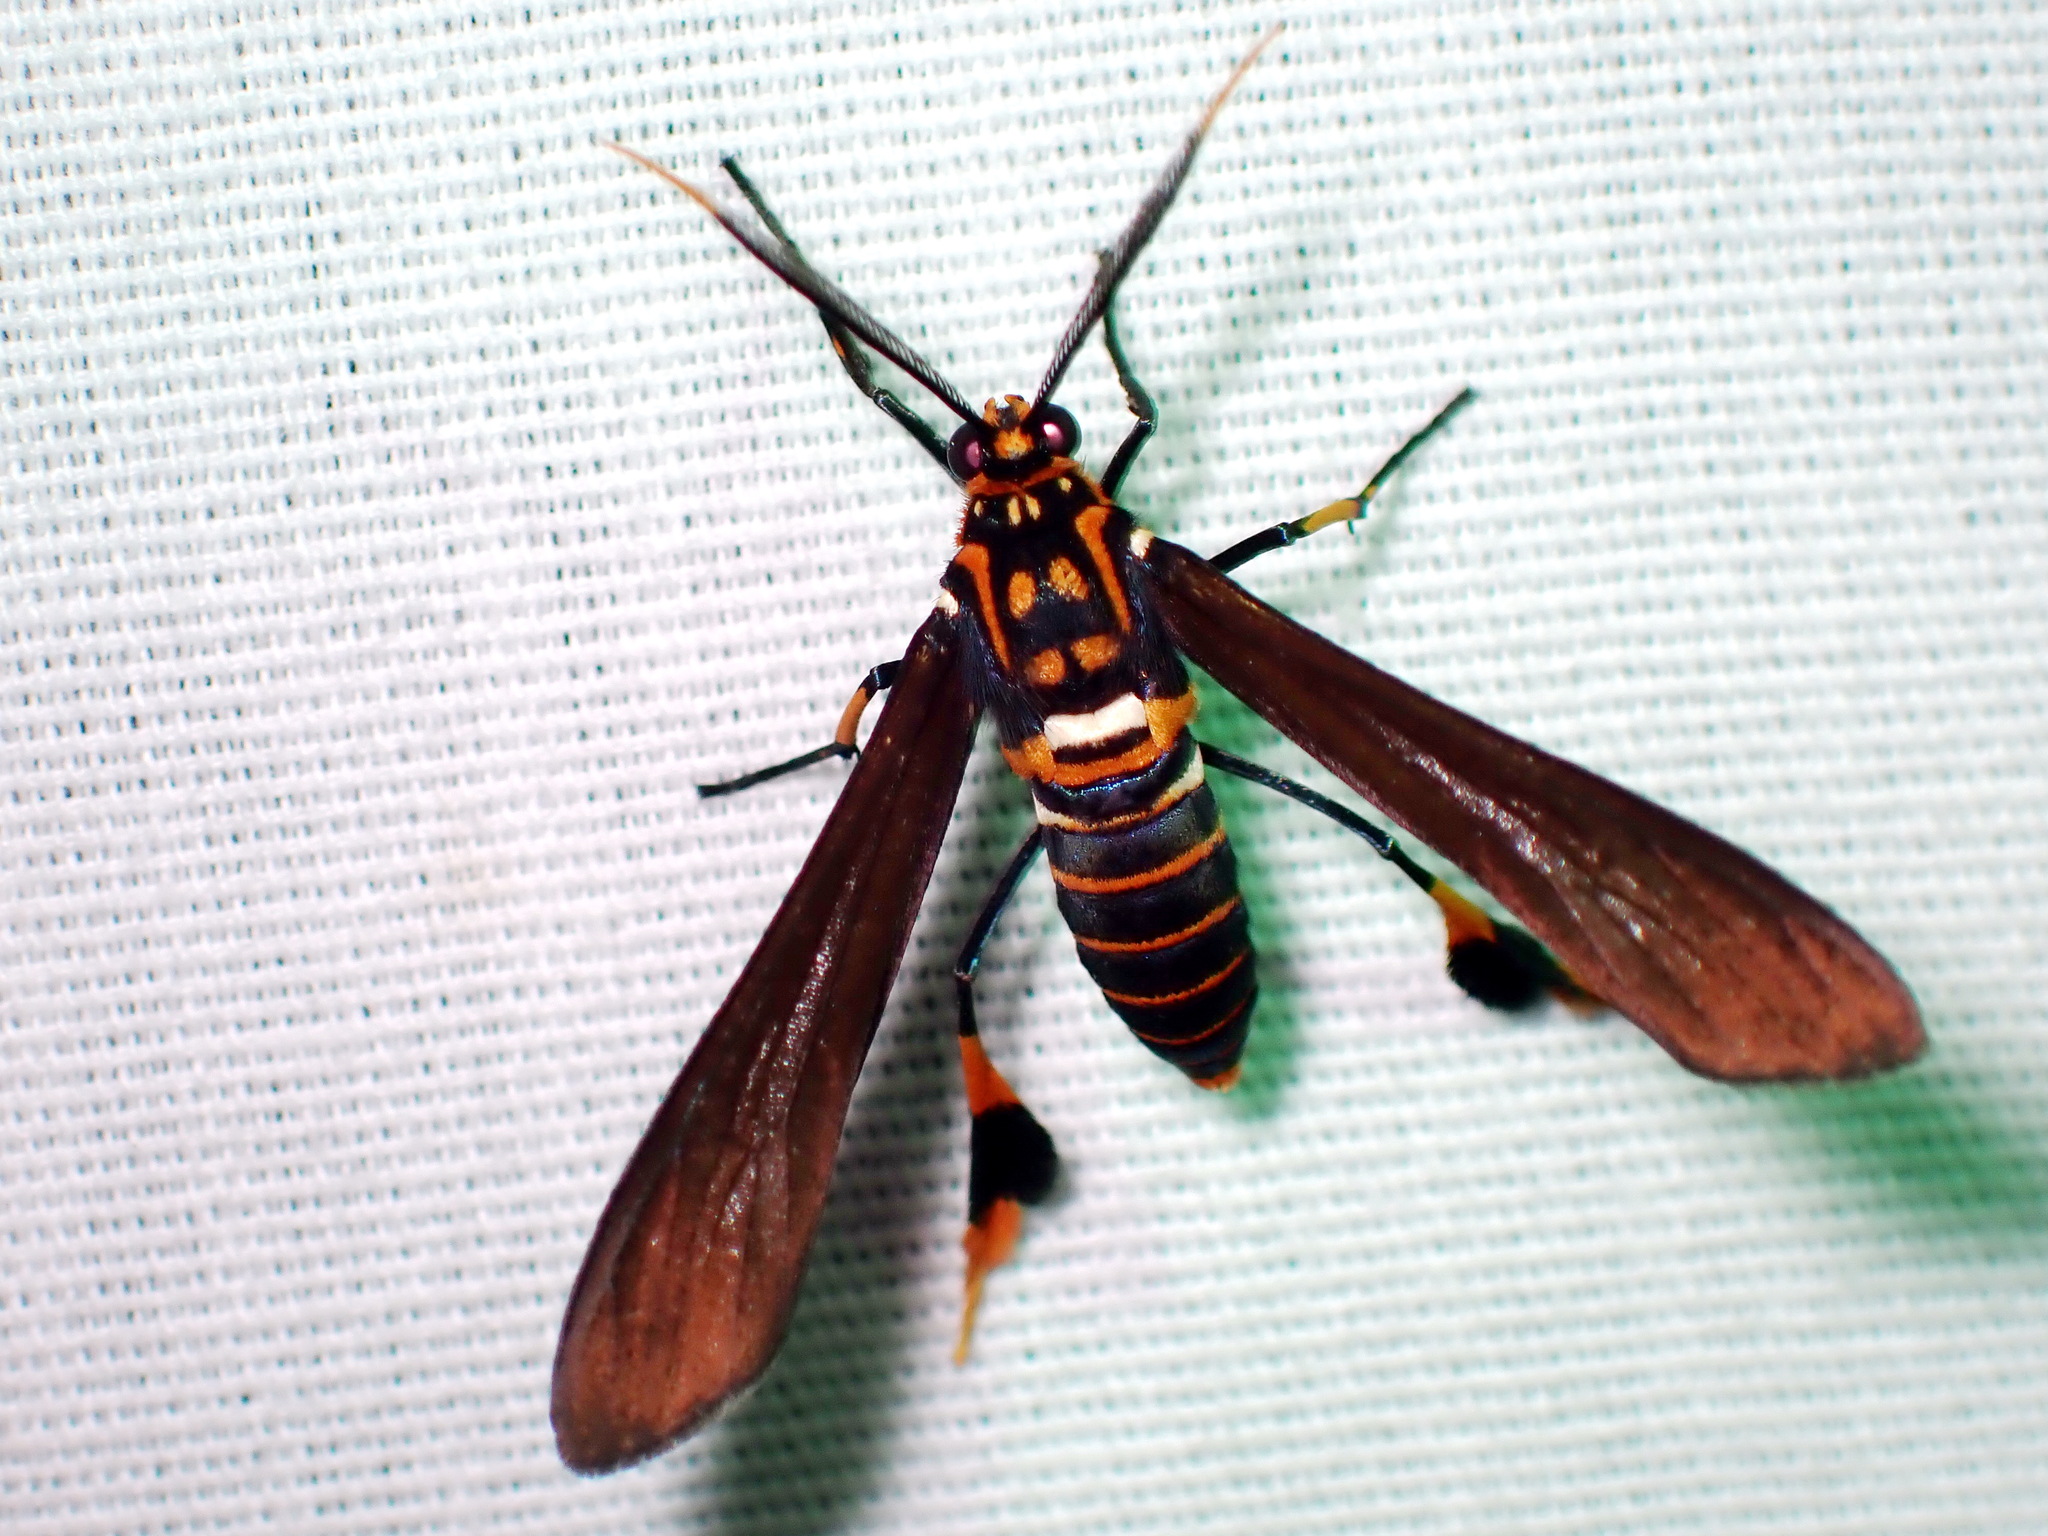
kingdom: Animalia
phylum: Arthropoda
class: Insecta
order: Lepidoptera
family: Erebidae
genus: Horama
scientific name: Horama panthalon
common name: Texas wasp moth
